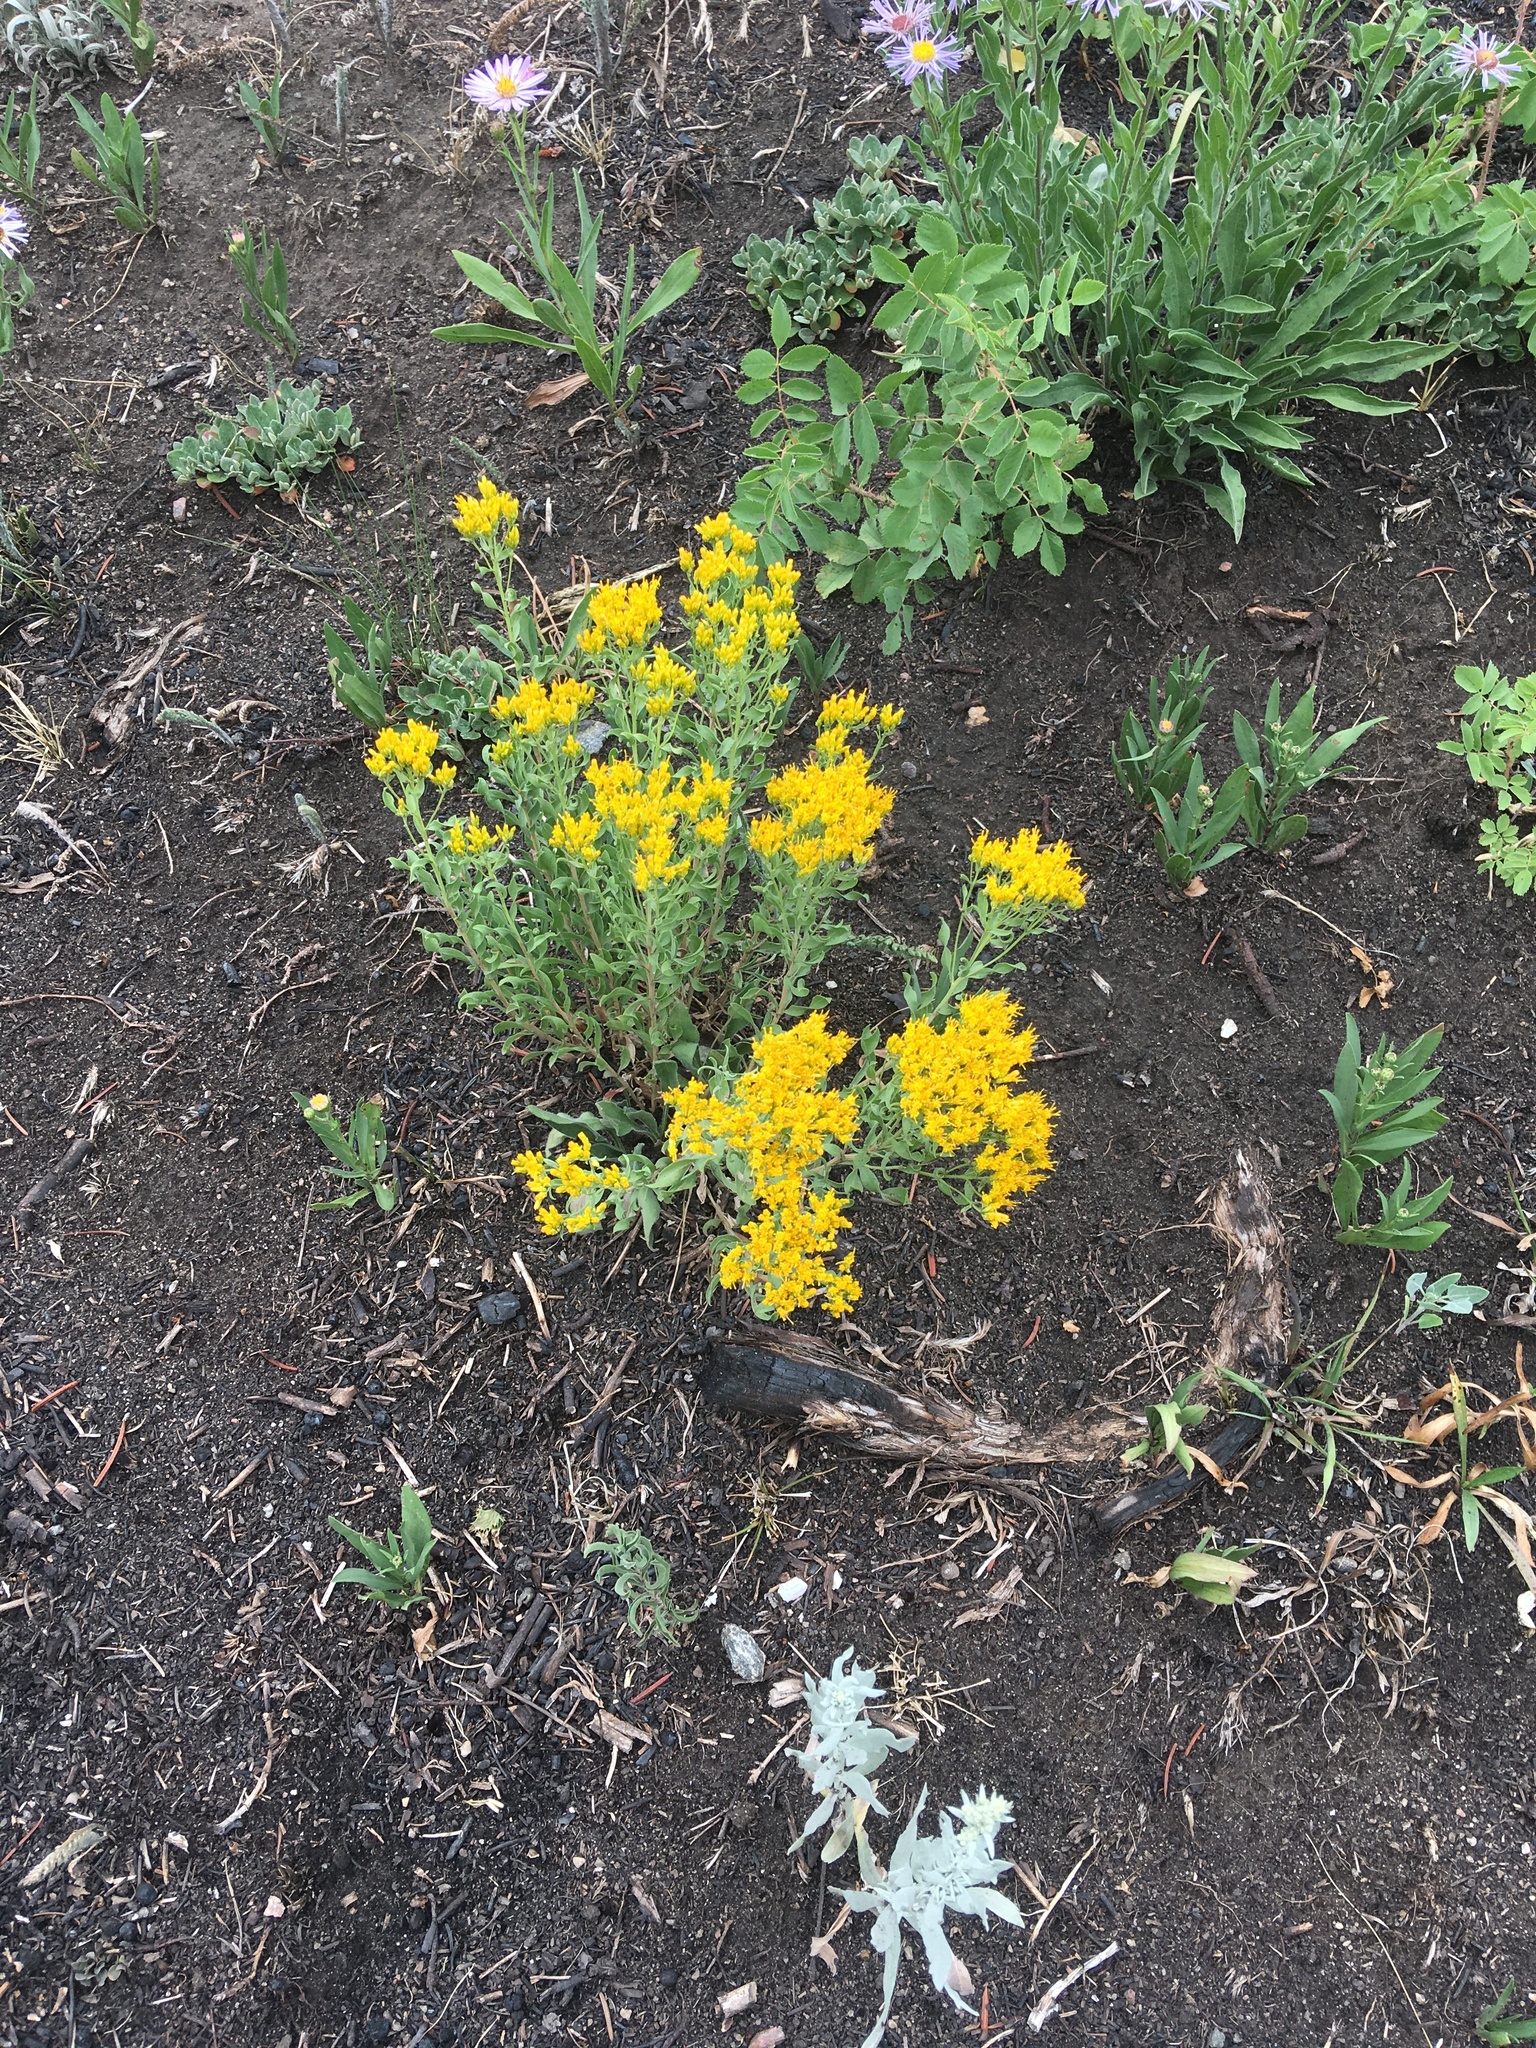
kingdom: Plantae
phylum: Tracheophyta
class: Magnoliopsida
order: Asterales
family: Asteraceae
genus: Chrysothamnus
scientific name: Chrysothamnus viscidiflorus
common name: Yellow rabbitbrush
